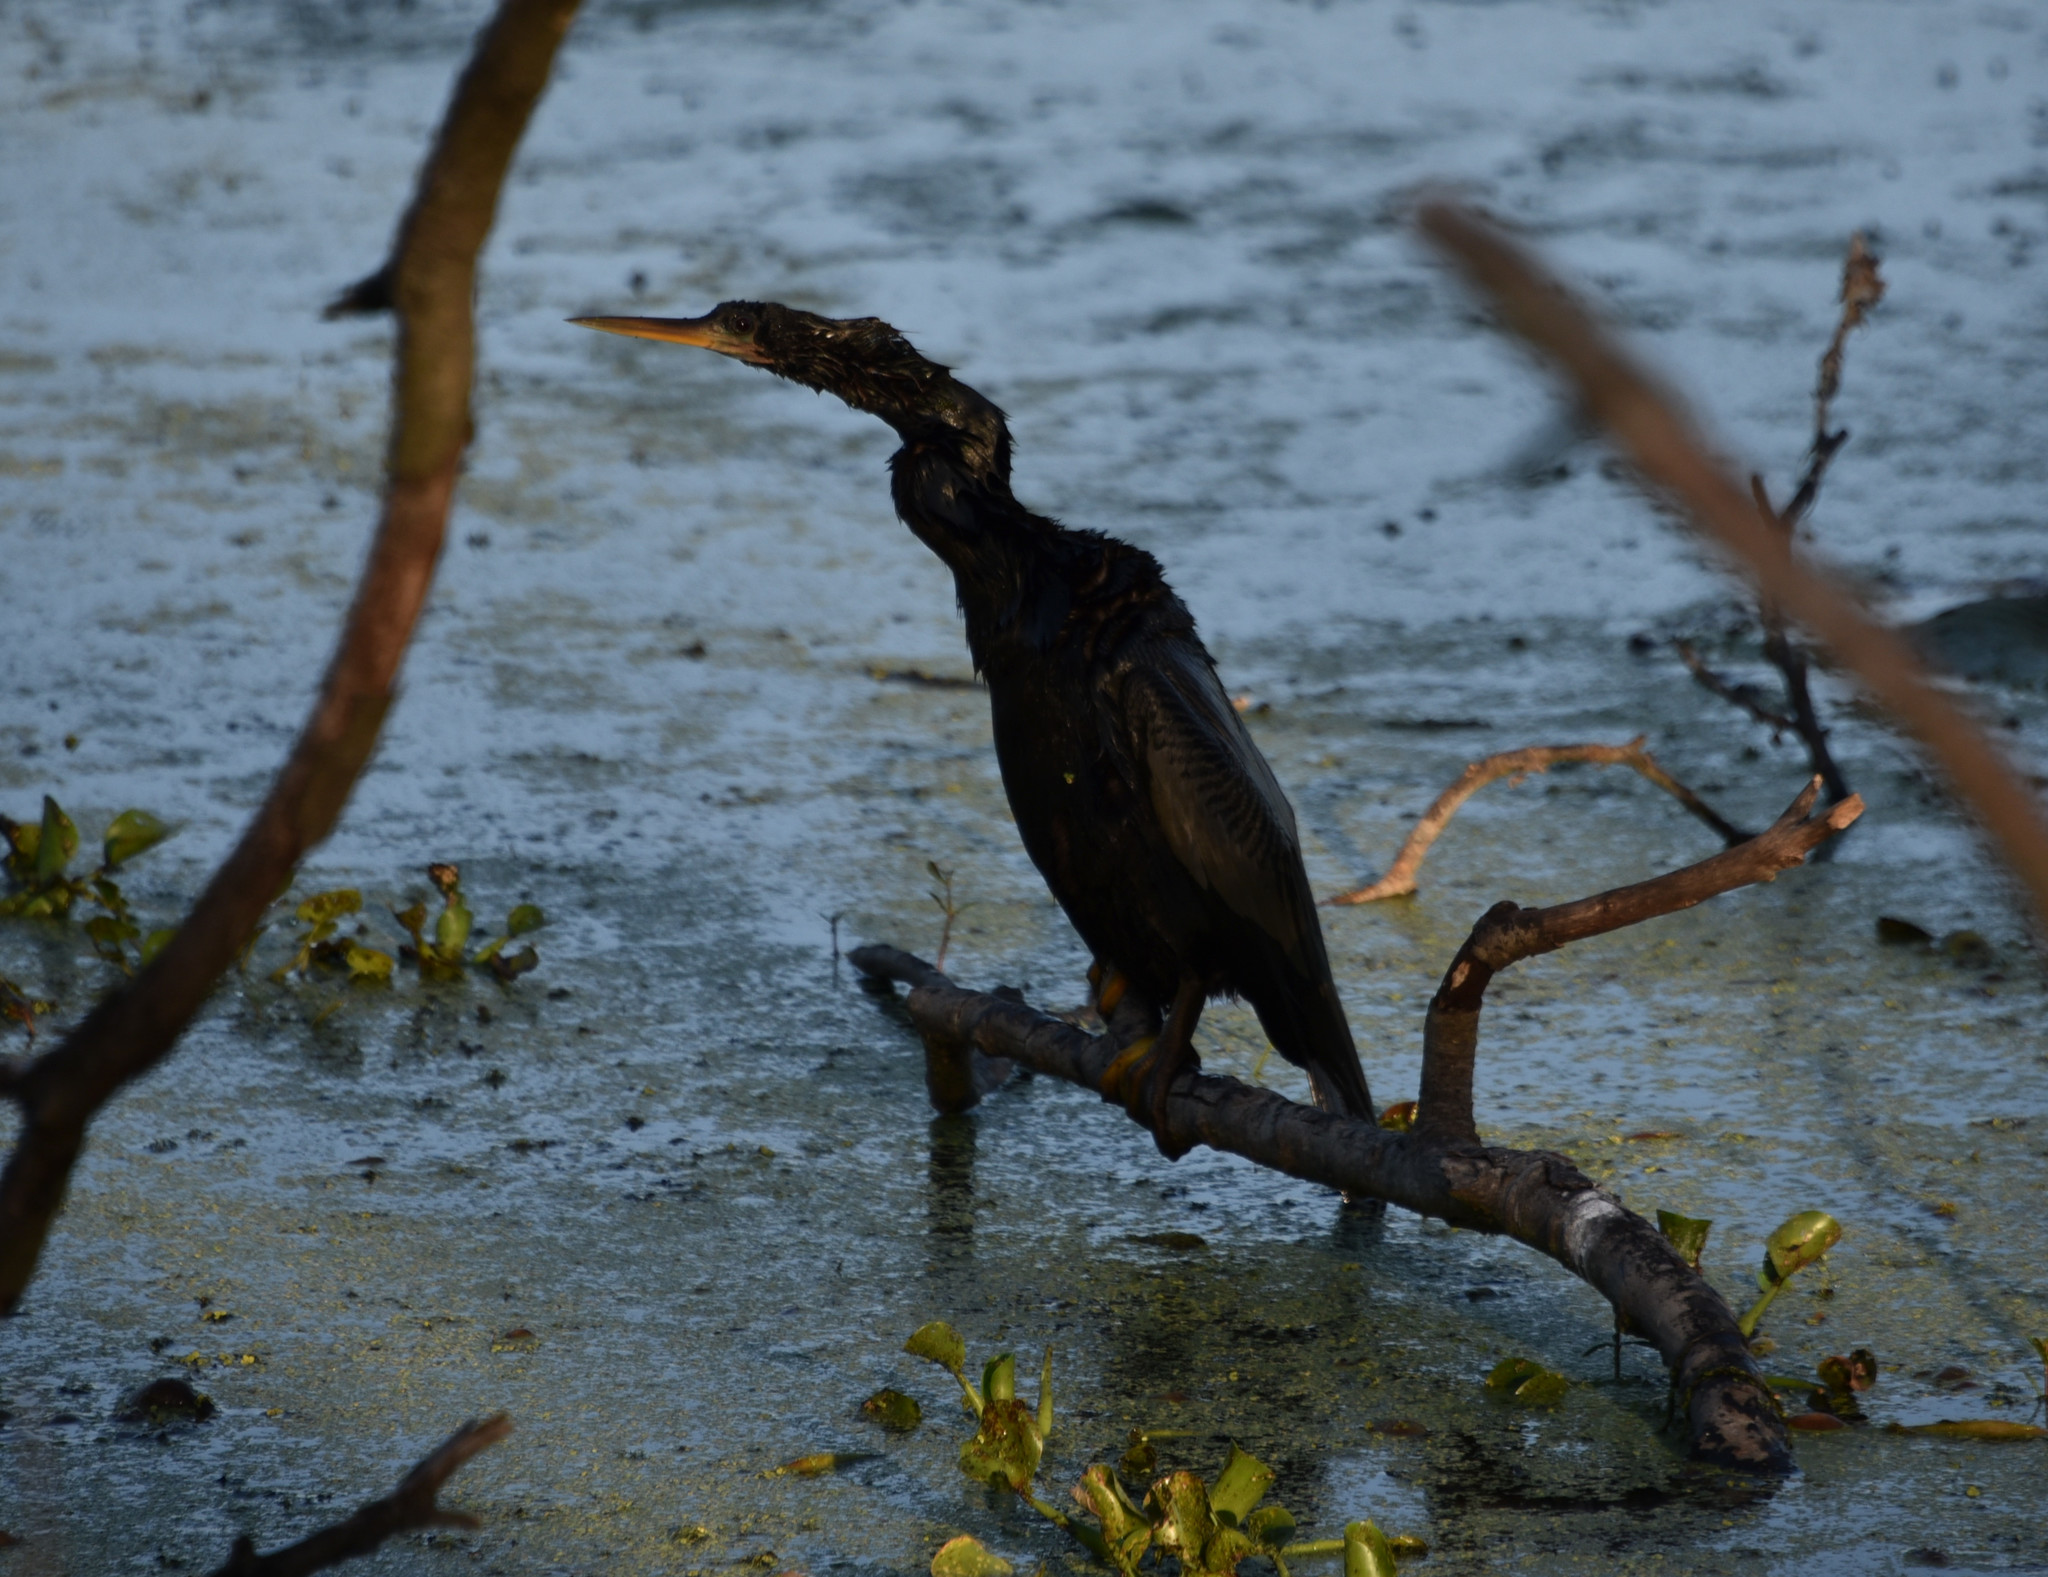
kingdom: Animalia
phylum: Chordata
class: Aves
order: Suliformes
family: Anhingidae
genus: Anhinga
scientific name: Anhinga anhinga
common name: Anhinga
